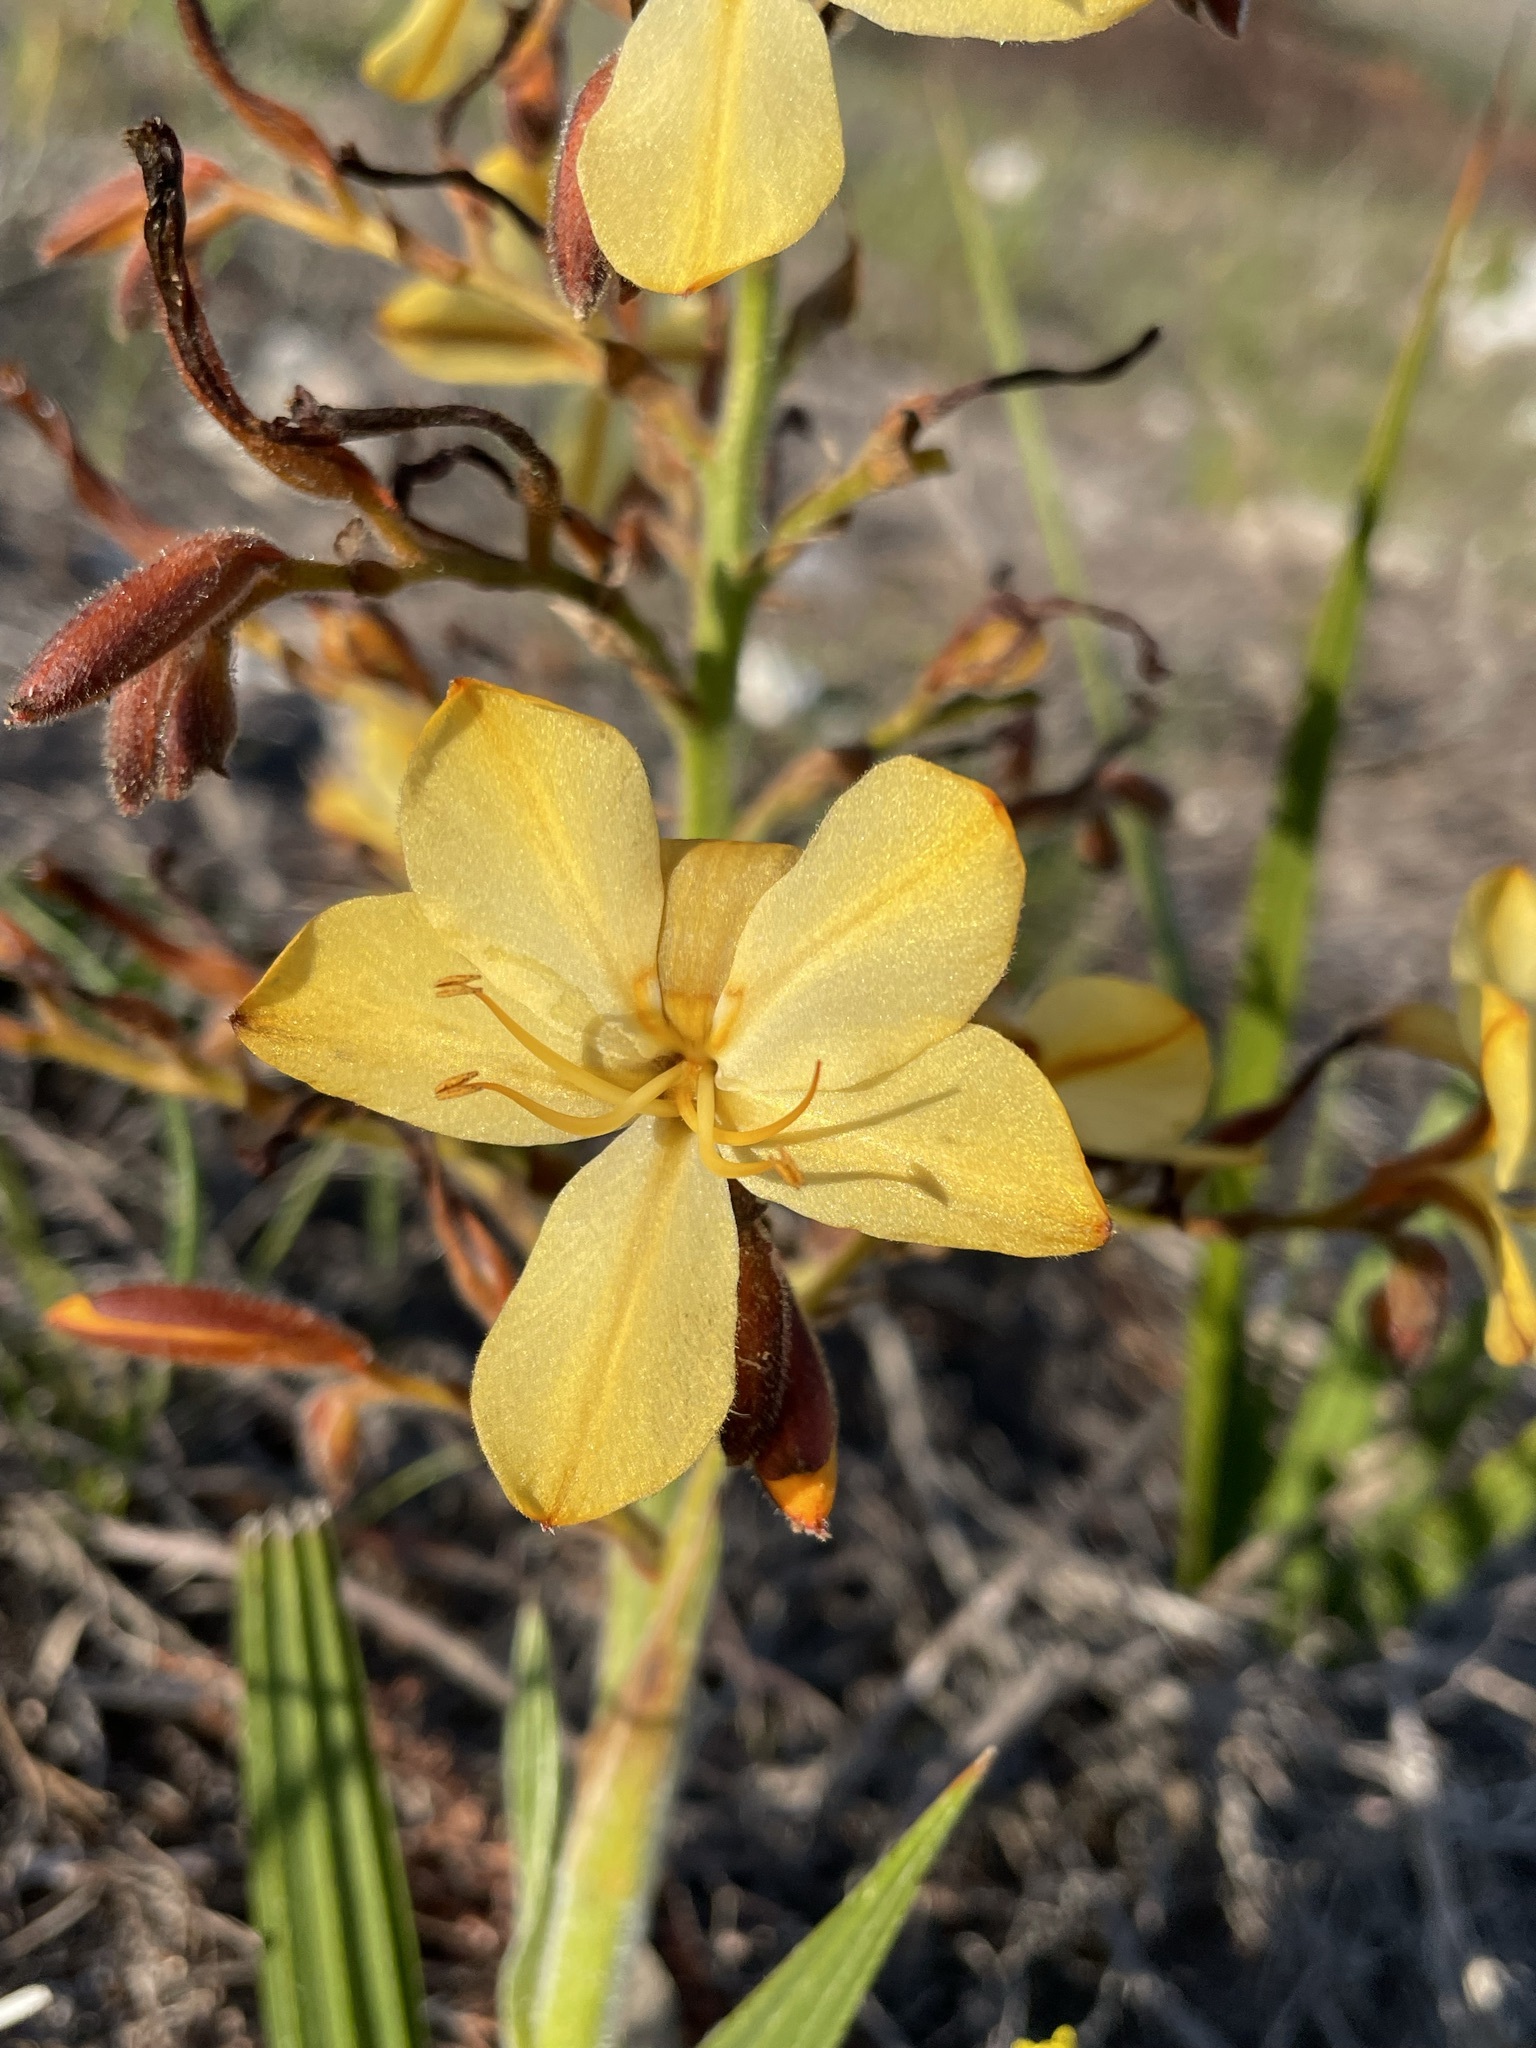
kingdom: Plantae
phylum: Tracheophyta
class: Liliopsida
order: Commelinales
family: Haemodoraceae
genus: Wachendorfia
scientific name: Wachendorfia paniculata
